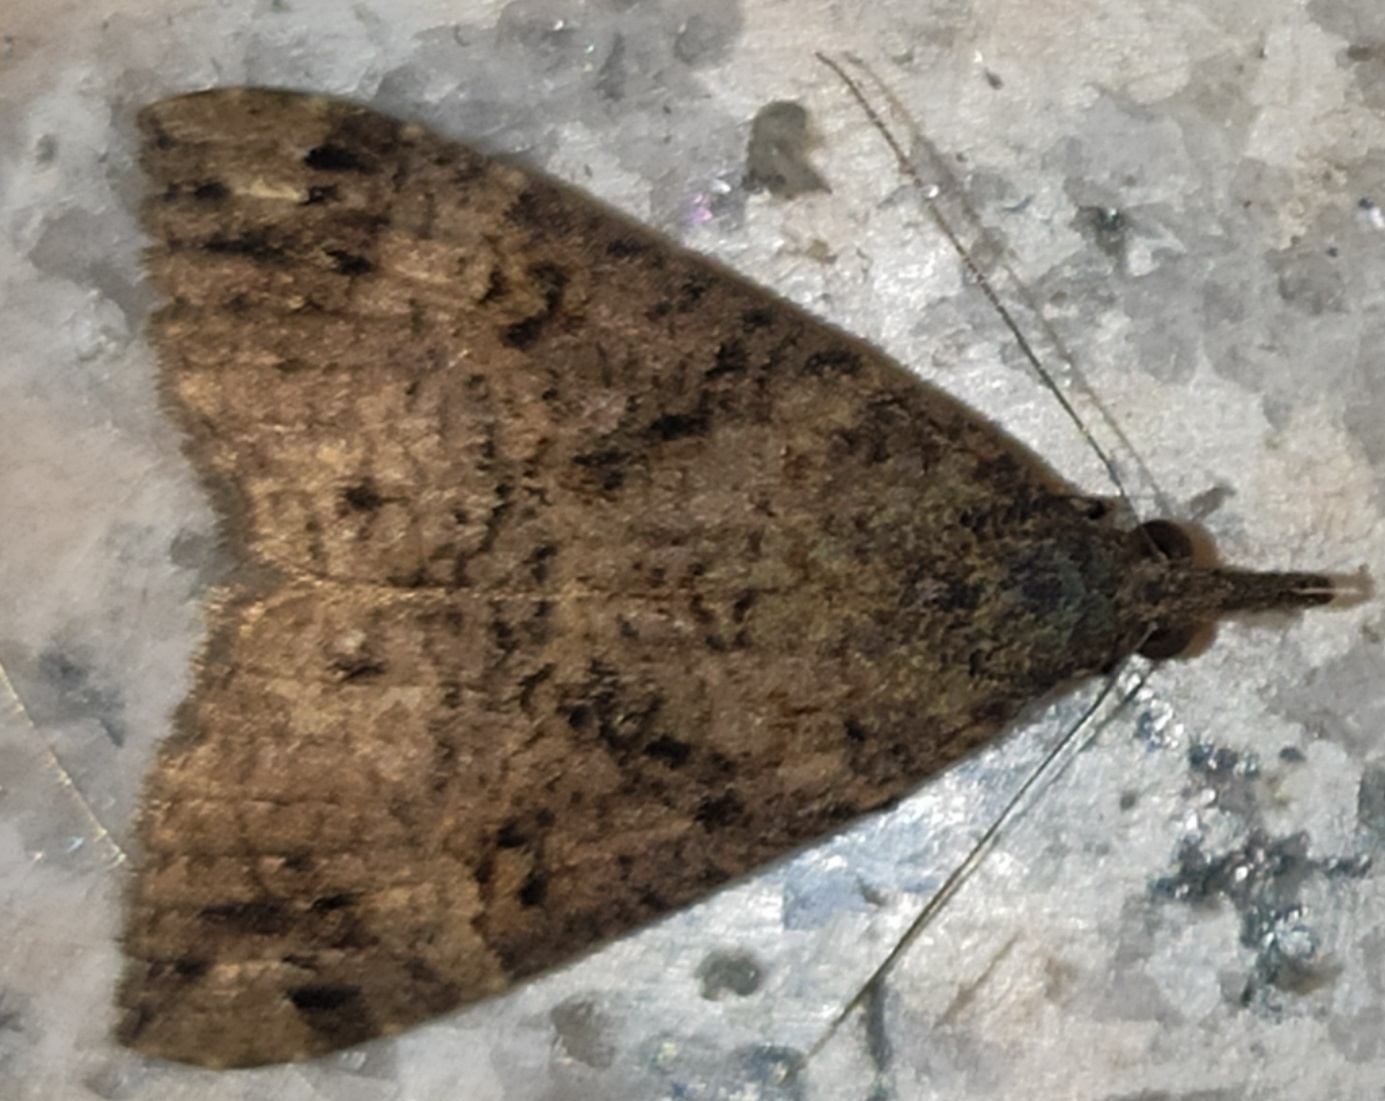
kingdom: Animalia
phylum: Arthropoda
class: Insecta
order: Lepidoptera
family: Erebidae
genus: Hypena
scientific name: Hypena obsitalis
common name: Bloxworth snout
